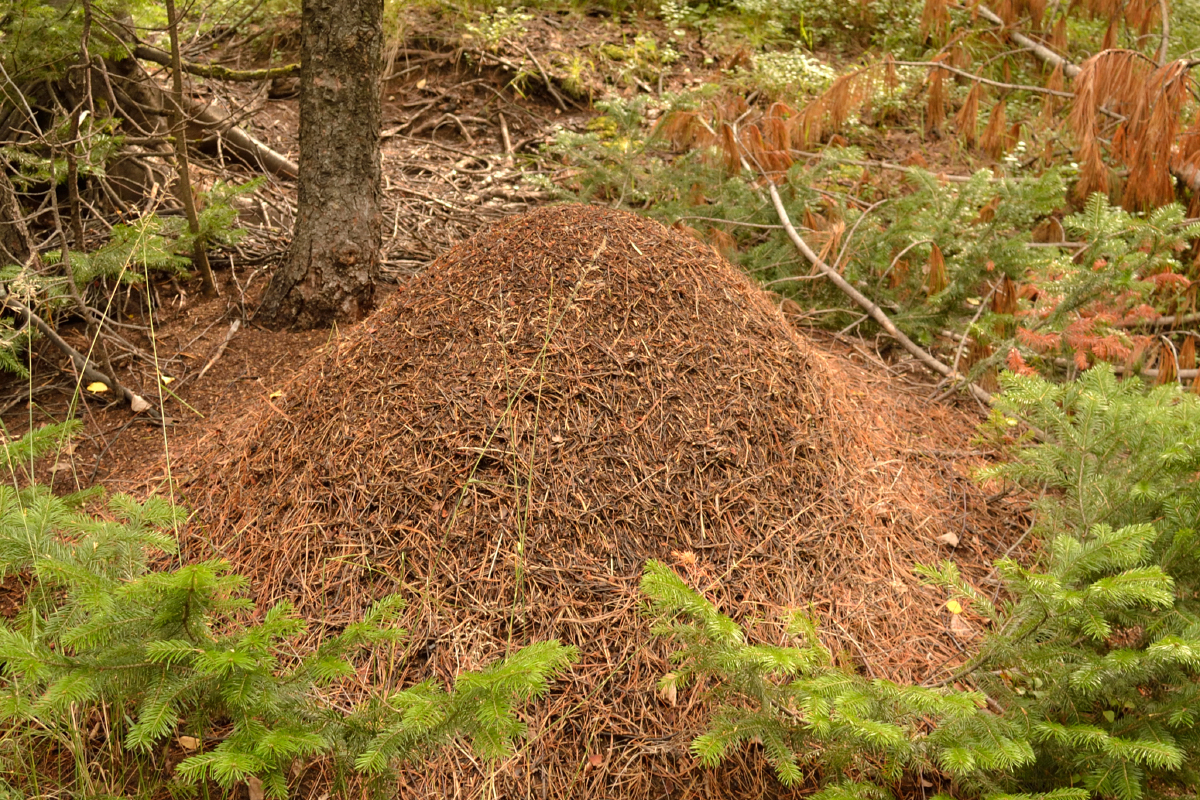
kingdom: Animalia
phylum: Arthropoda
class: Insecta
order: Hymenoptera
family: Formicidae
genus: Formica
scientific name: Formica
